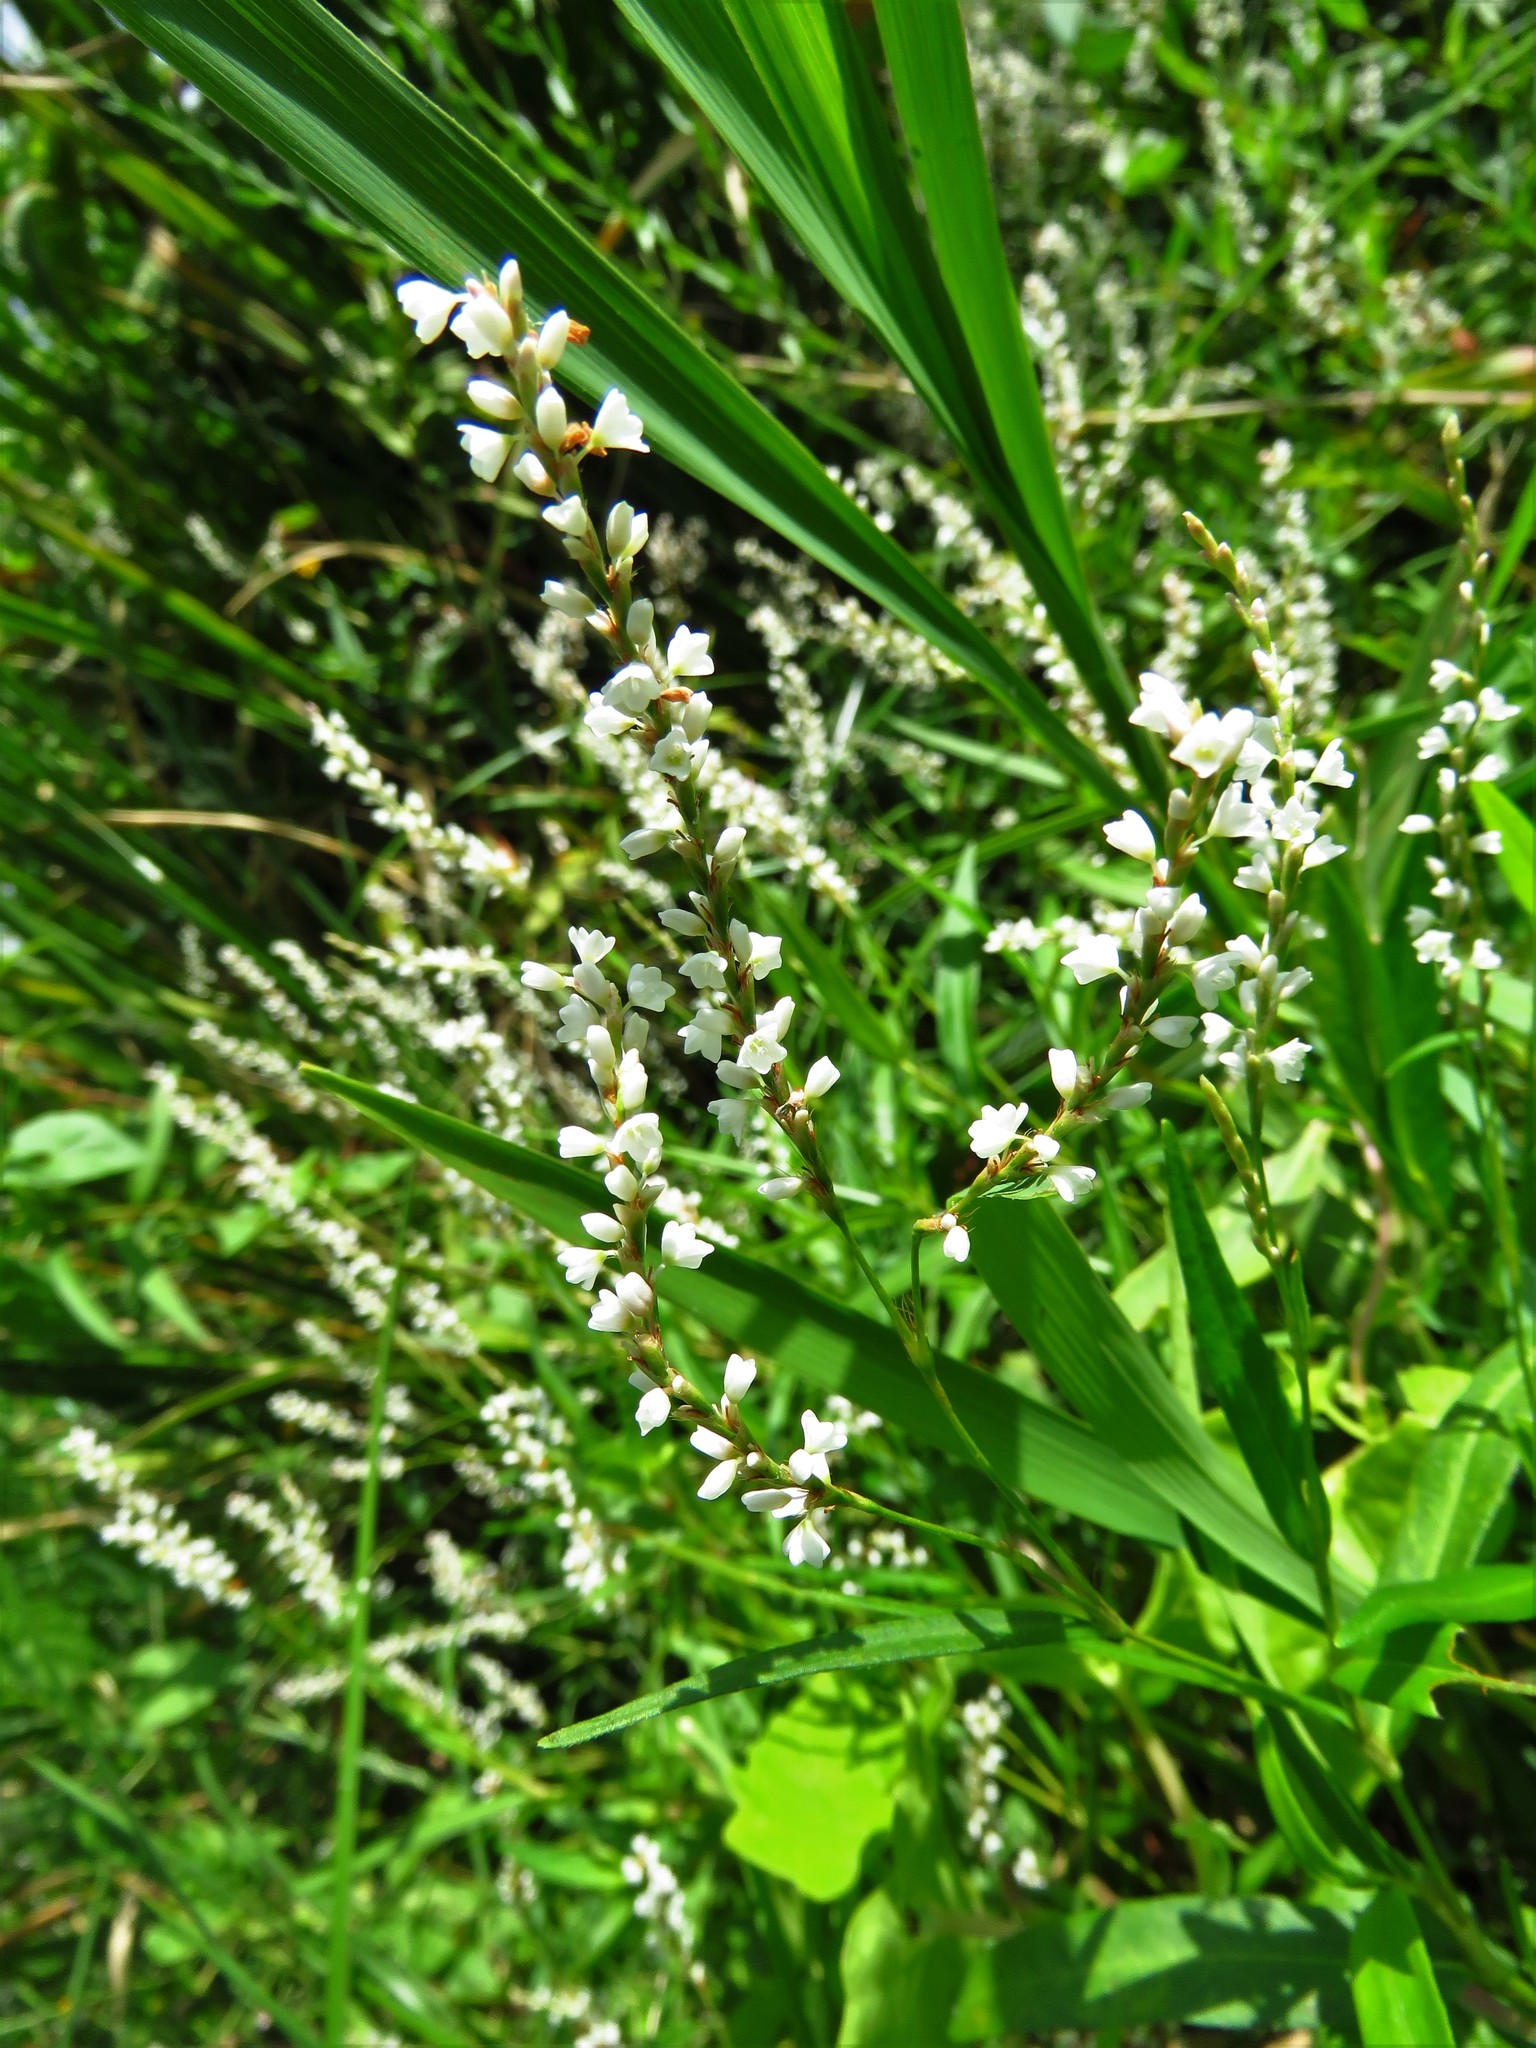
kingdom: Plantae
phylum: Tracheophyta
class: Magnoliopsida
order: Fabales
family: Fabaceae
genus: Melilotus
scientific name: Melilotus albus
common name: White melilot
